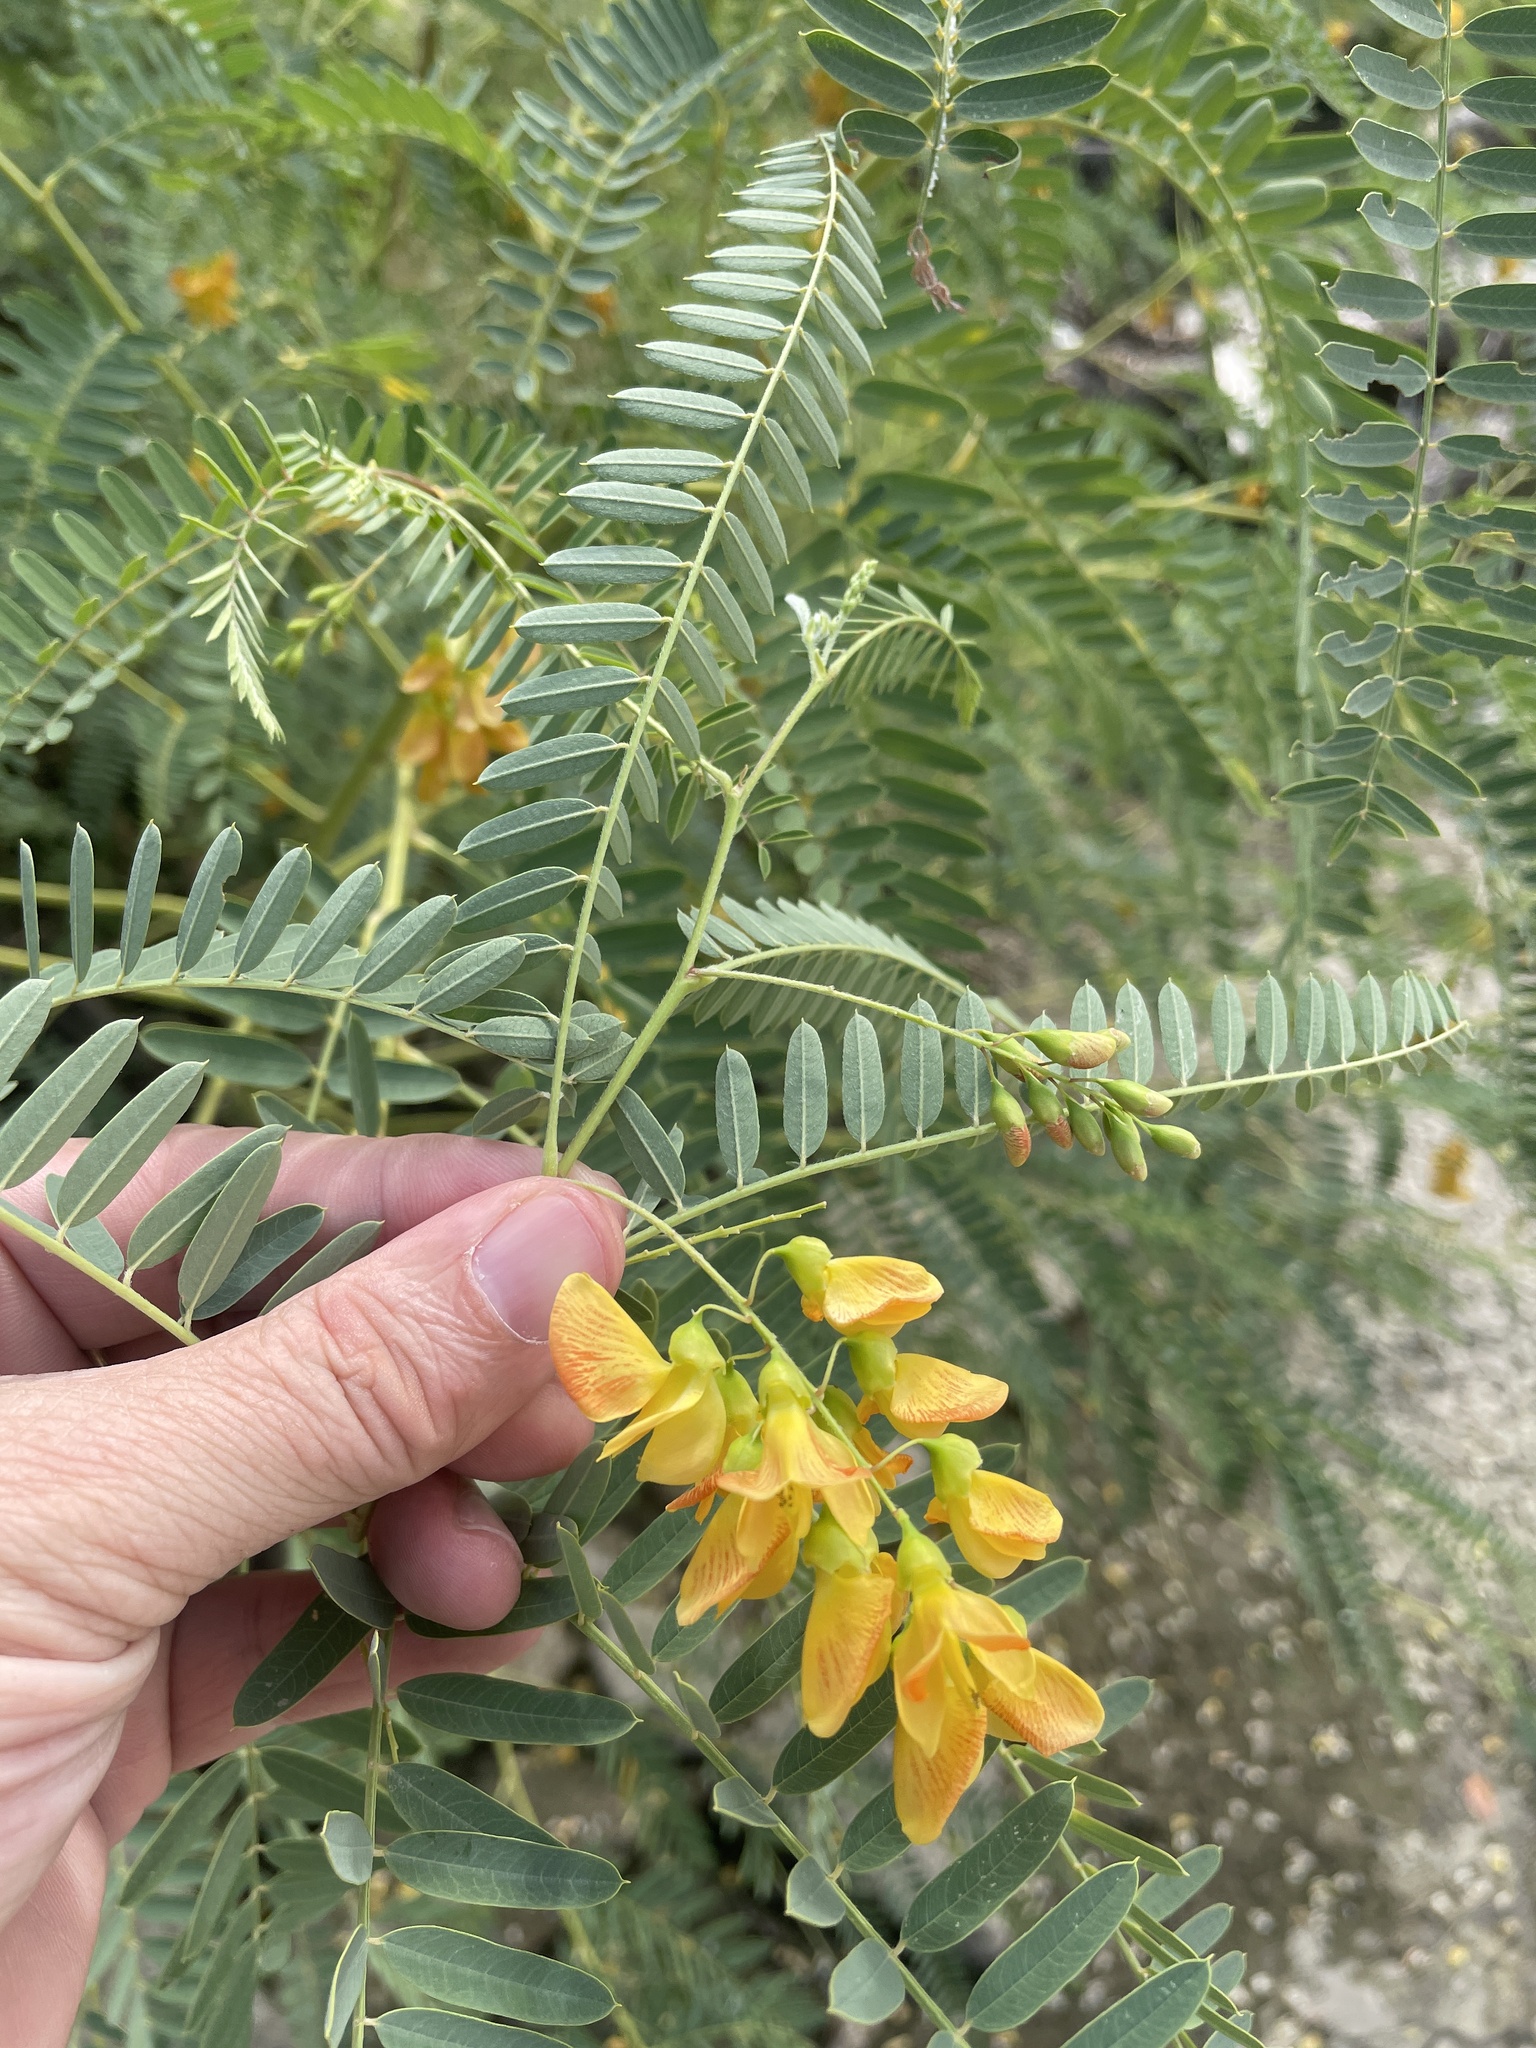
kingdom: Plantae
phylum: Tracheophyta
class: Magnoliopsida
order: Fabales
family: Fabaceae
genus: Sesbania
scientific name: Sesbania drummondii
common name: Poison-bean
